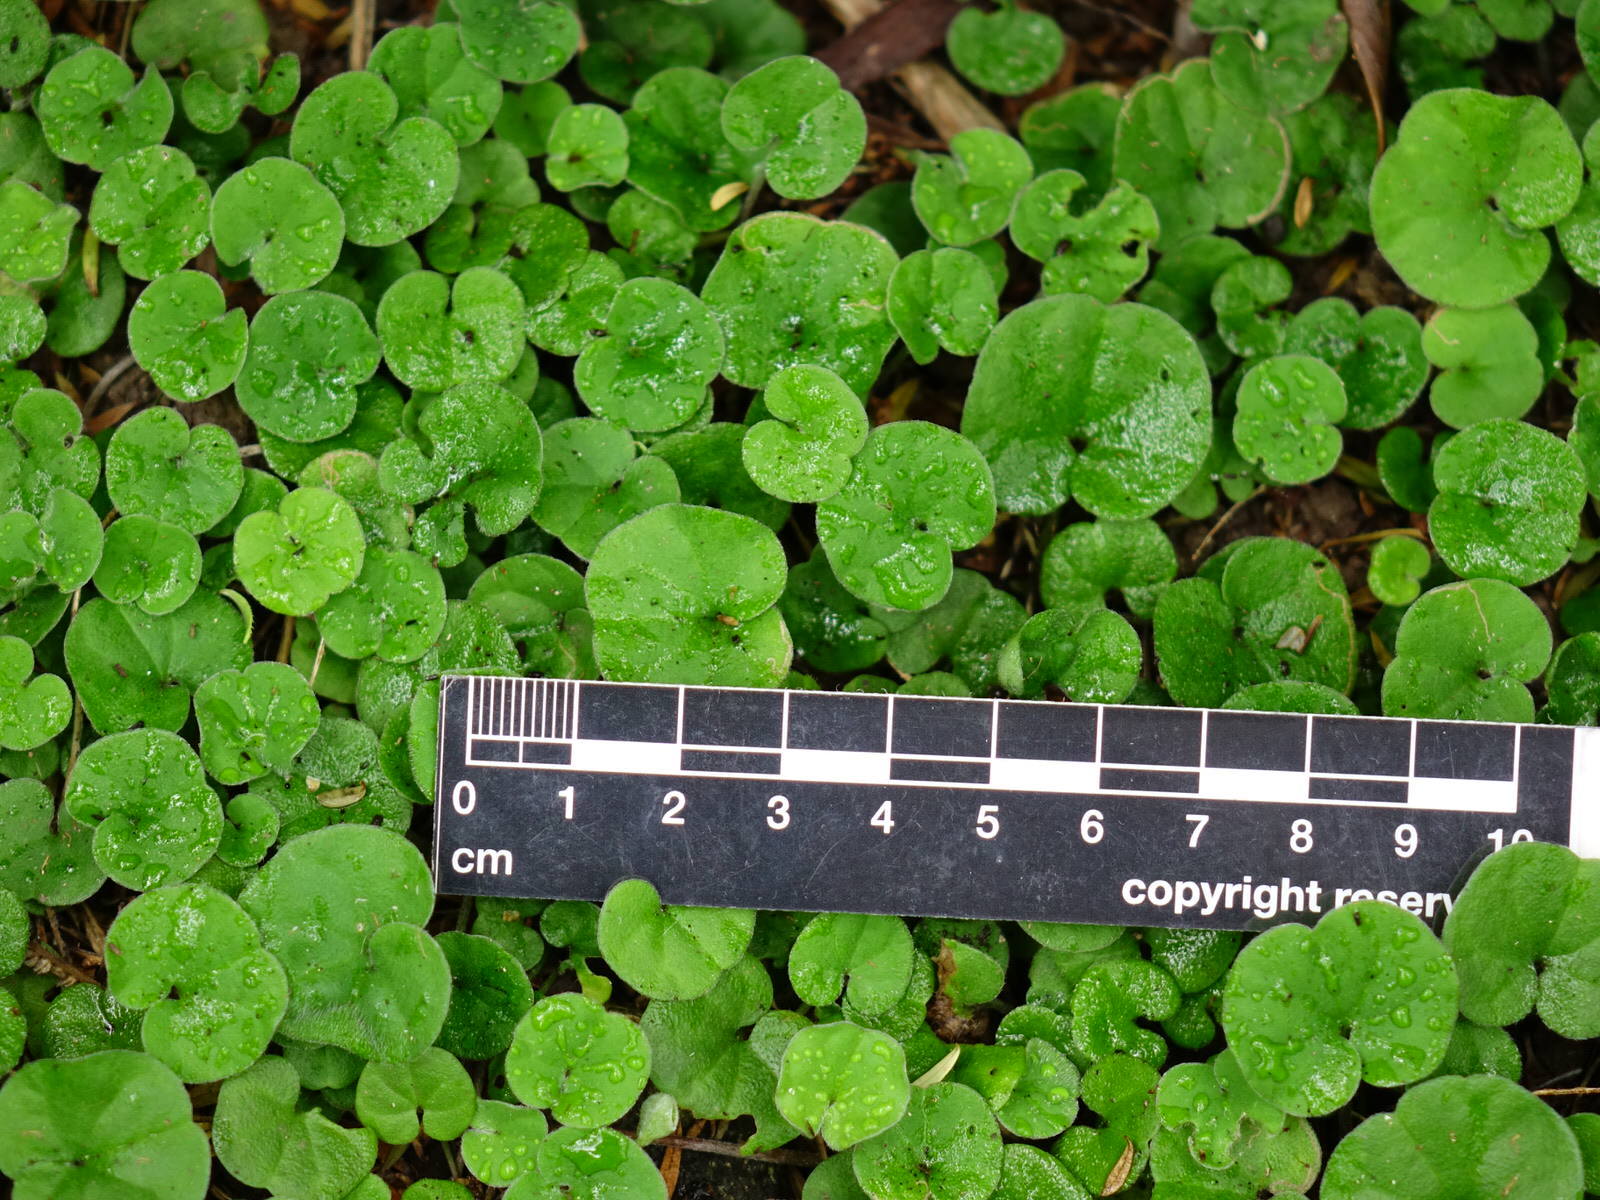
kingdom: Plantae
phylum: Tracheophyta
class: Magnoliopsida
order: Solanales
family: Convolvulaceae
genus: Dichondra
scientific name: Dichondra repens
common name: Kidneyweed
